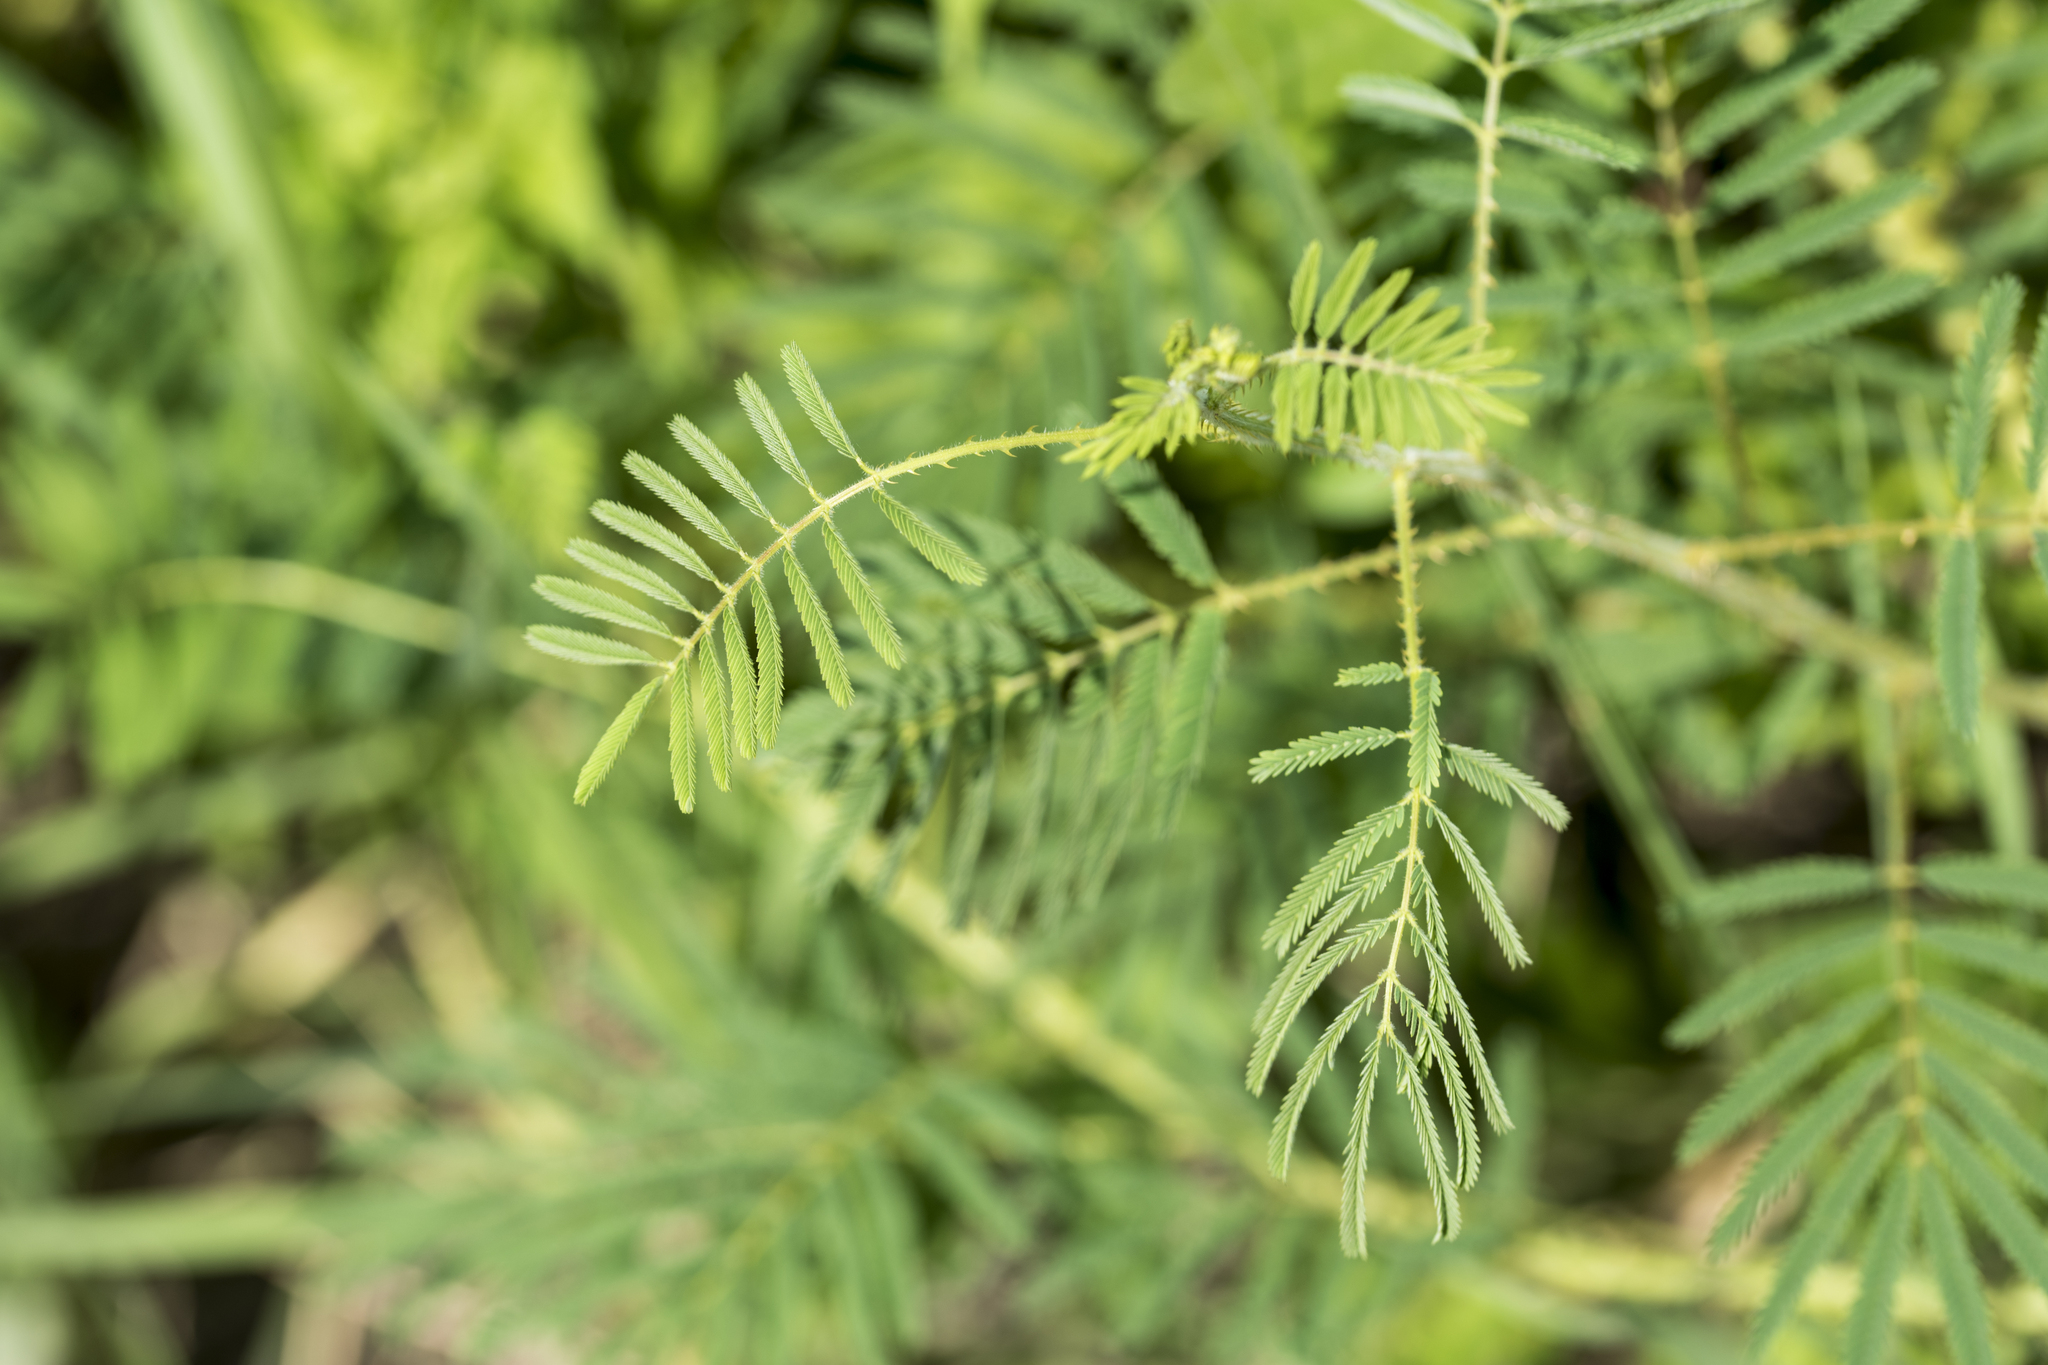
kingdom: Plantae
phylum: Tracheophyta
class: Magnoliopsida
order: Fabales
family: Fabaceae
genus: Mimosa
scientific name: Mimosa diplotricha
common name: Giant sensitive-plant
